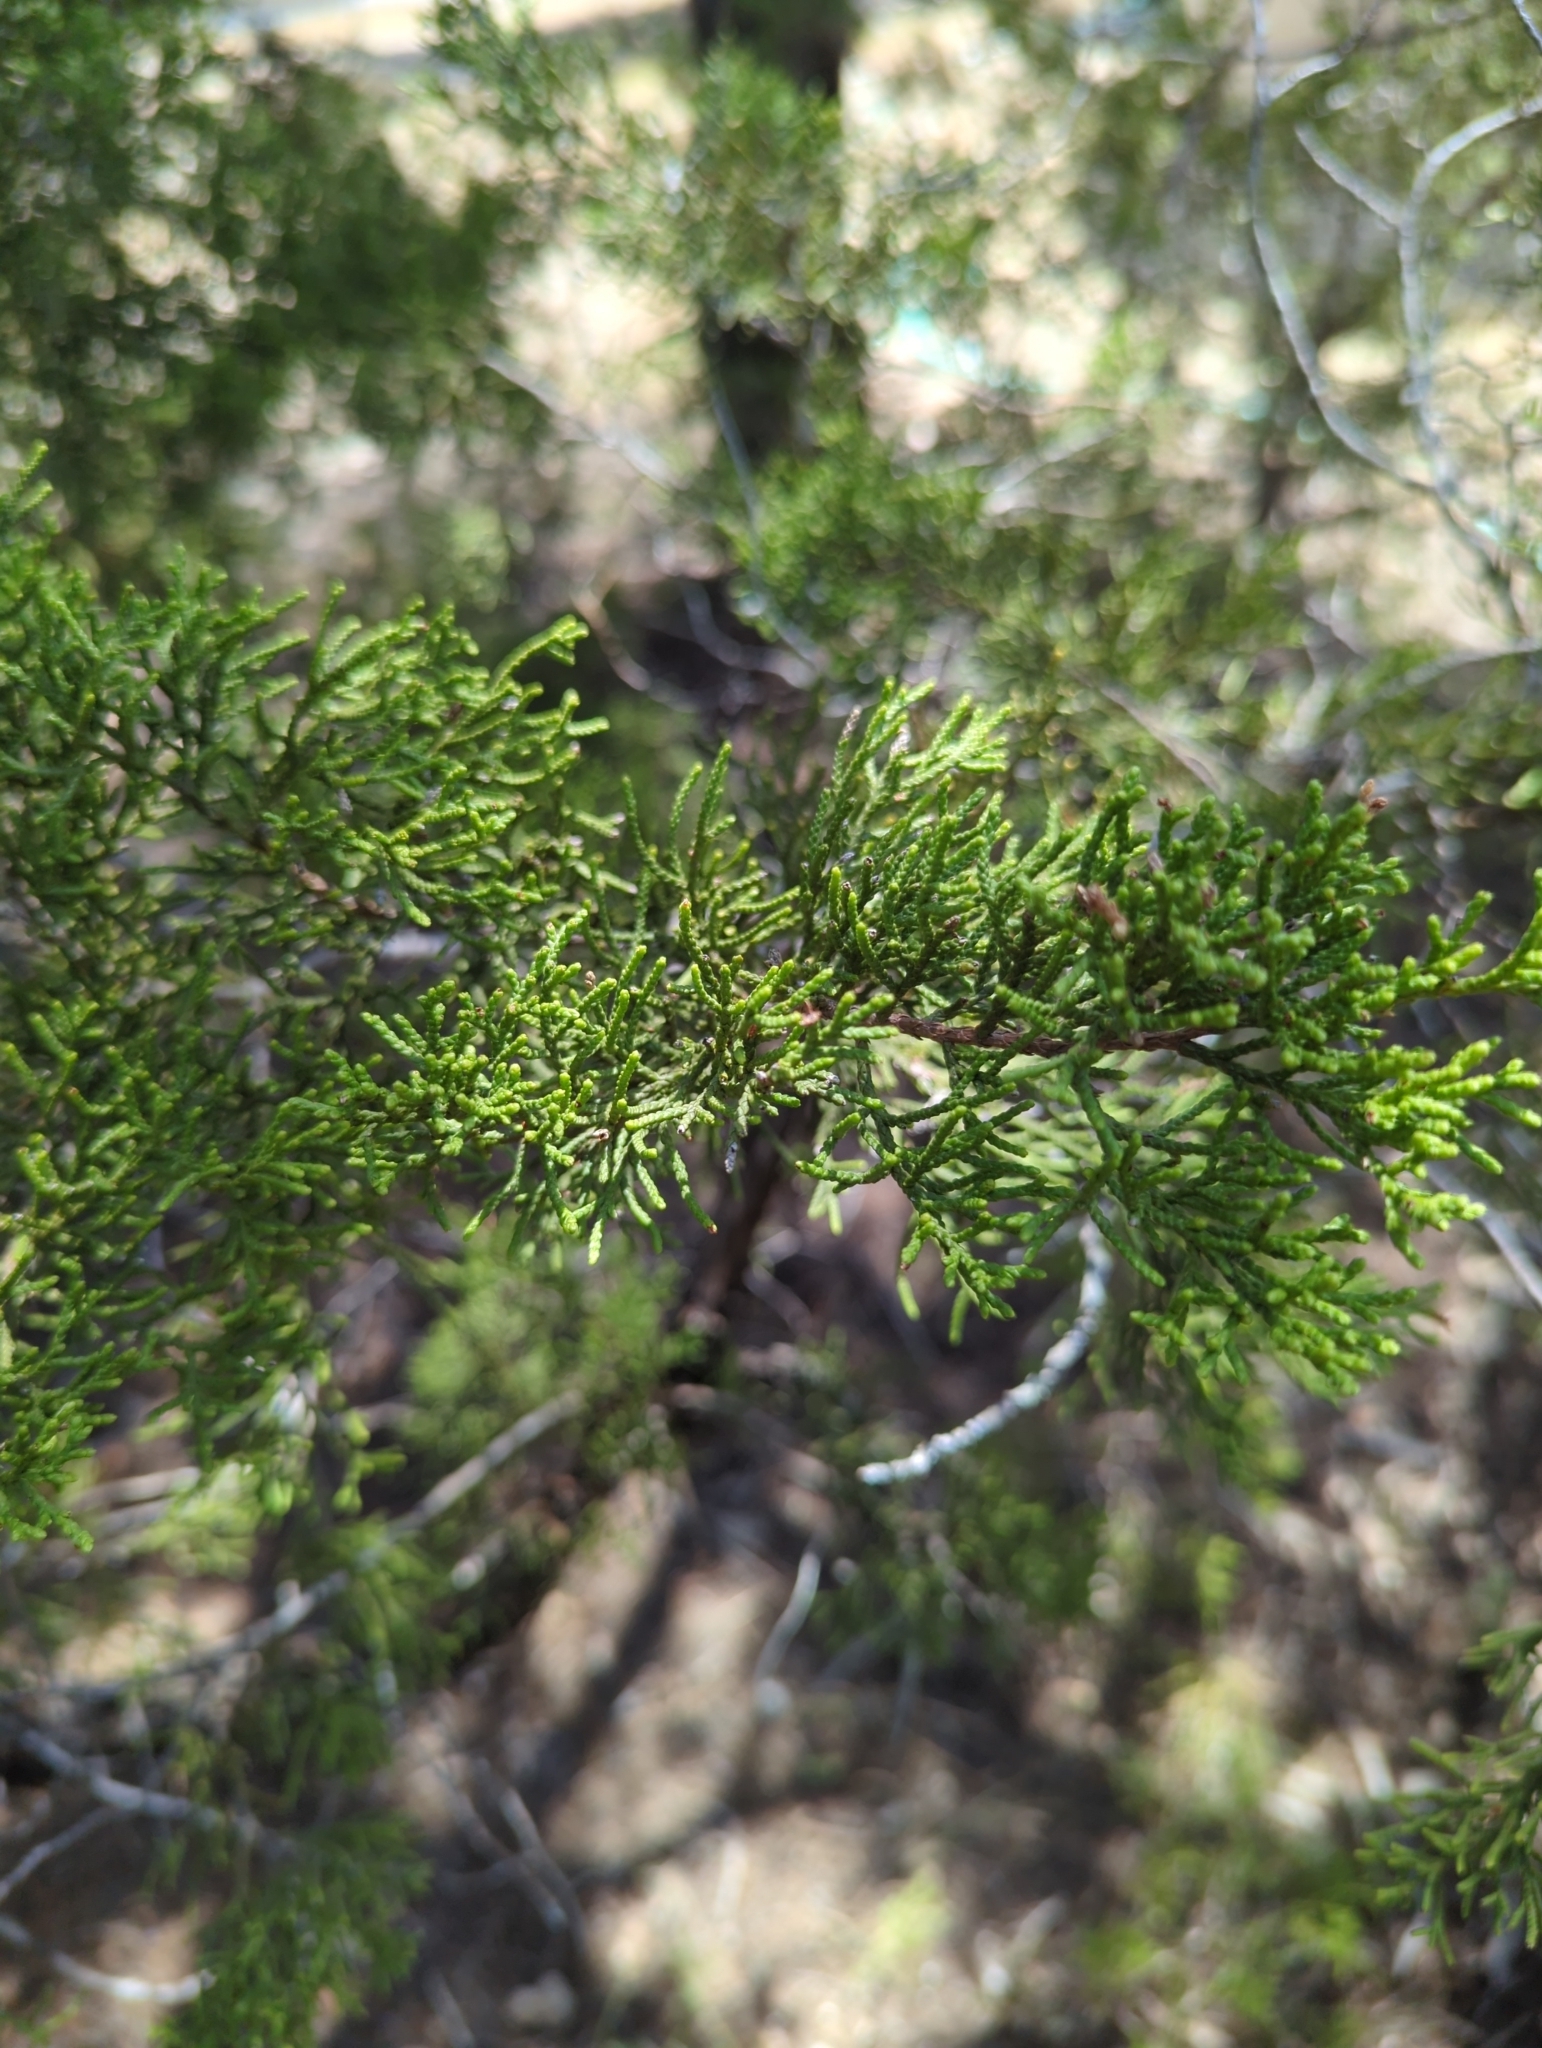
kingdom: Plantae
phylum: Tracheophyta
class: Pinopsida
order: Pinales
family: Cupressaceae
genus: Juniperus
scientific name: Juniperus ashei
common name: Mexican juniper
